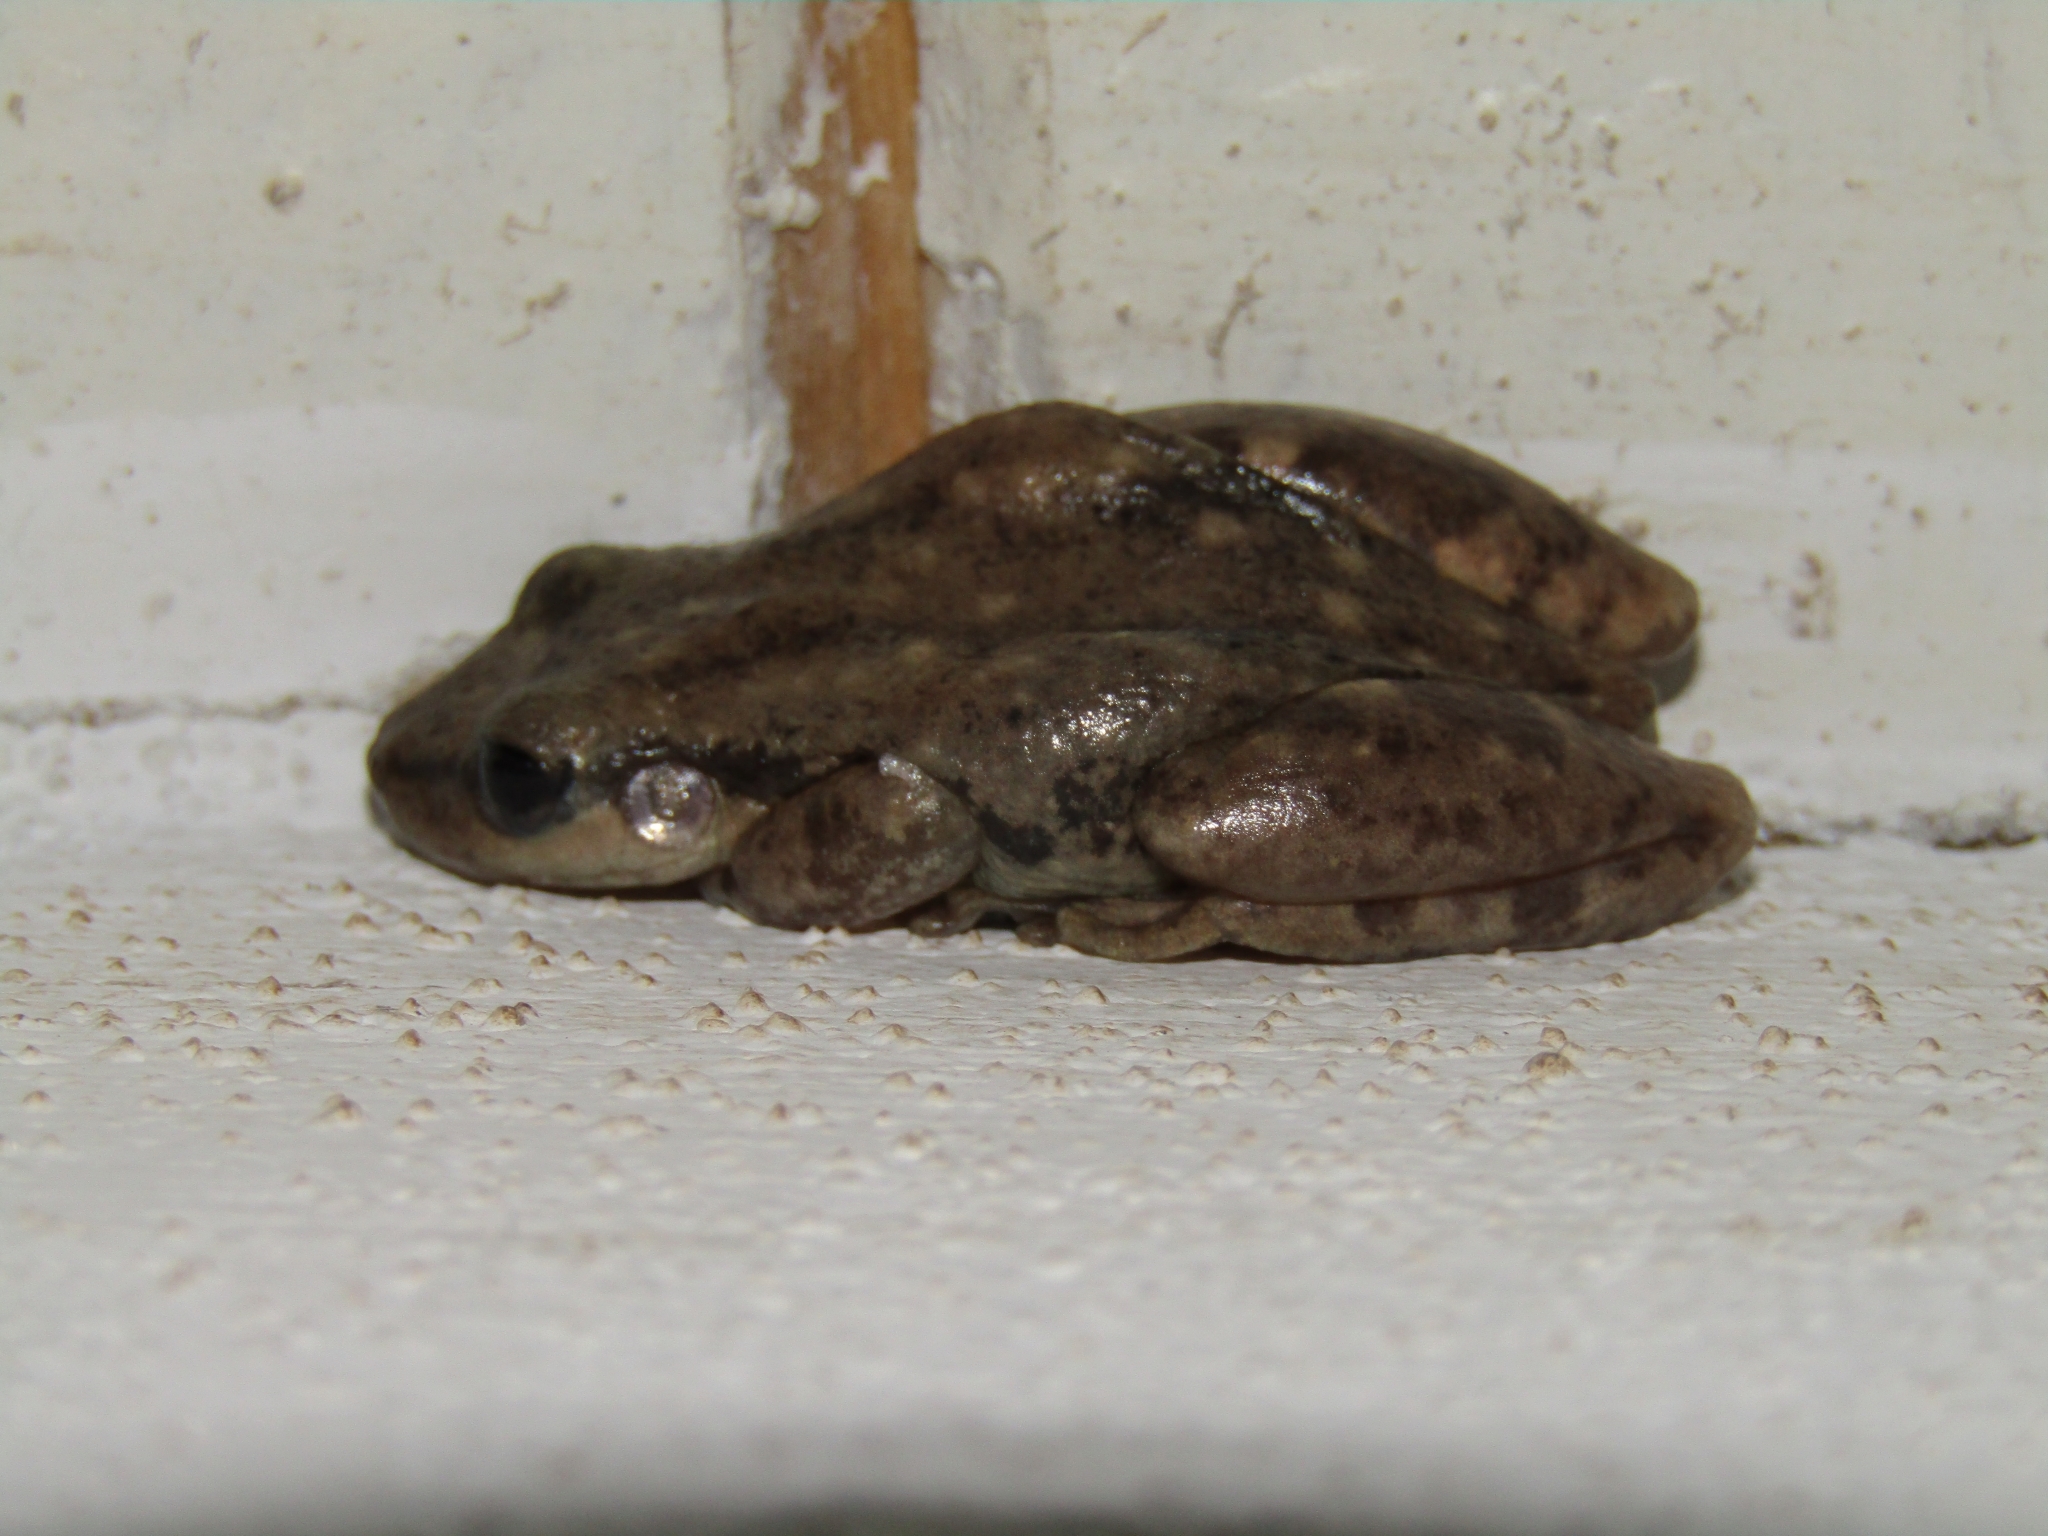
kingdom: Animalia
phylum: Chordata
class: Amphibia
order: Anura
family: Hylidae
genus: Scinax
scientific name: Scinax nasicus
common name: Lesser snouted treefrog
